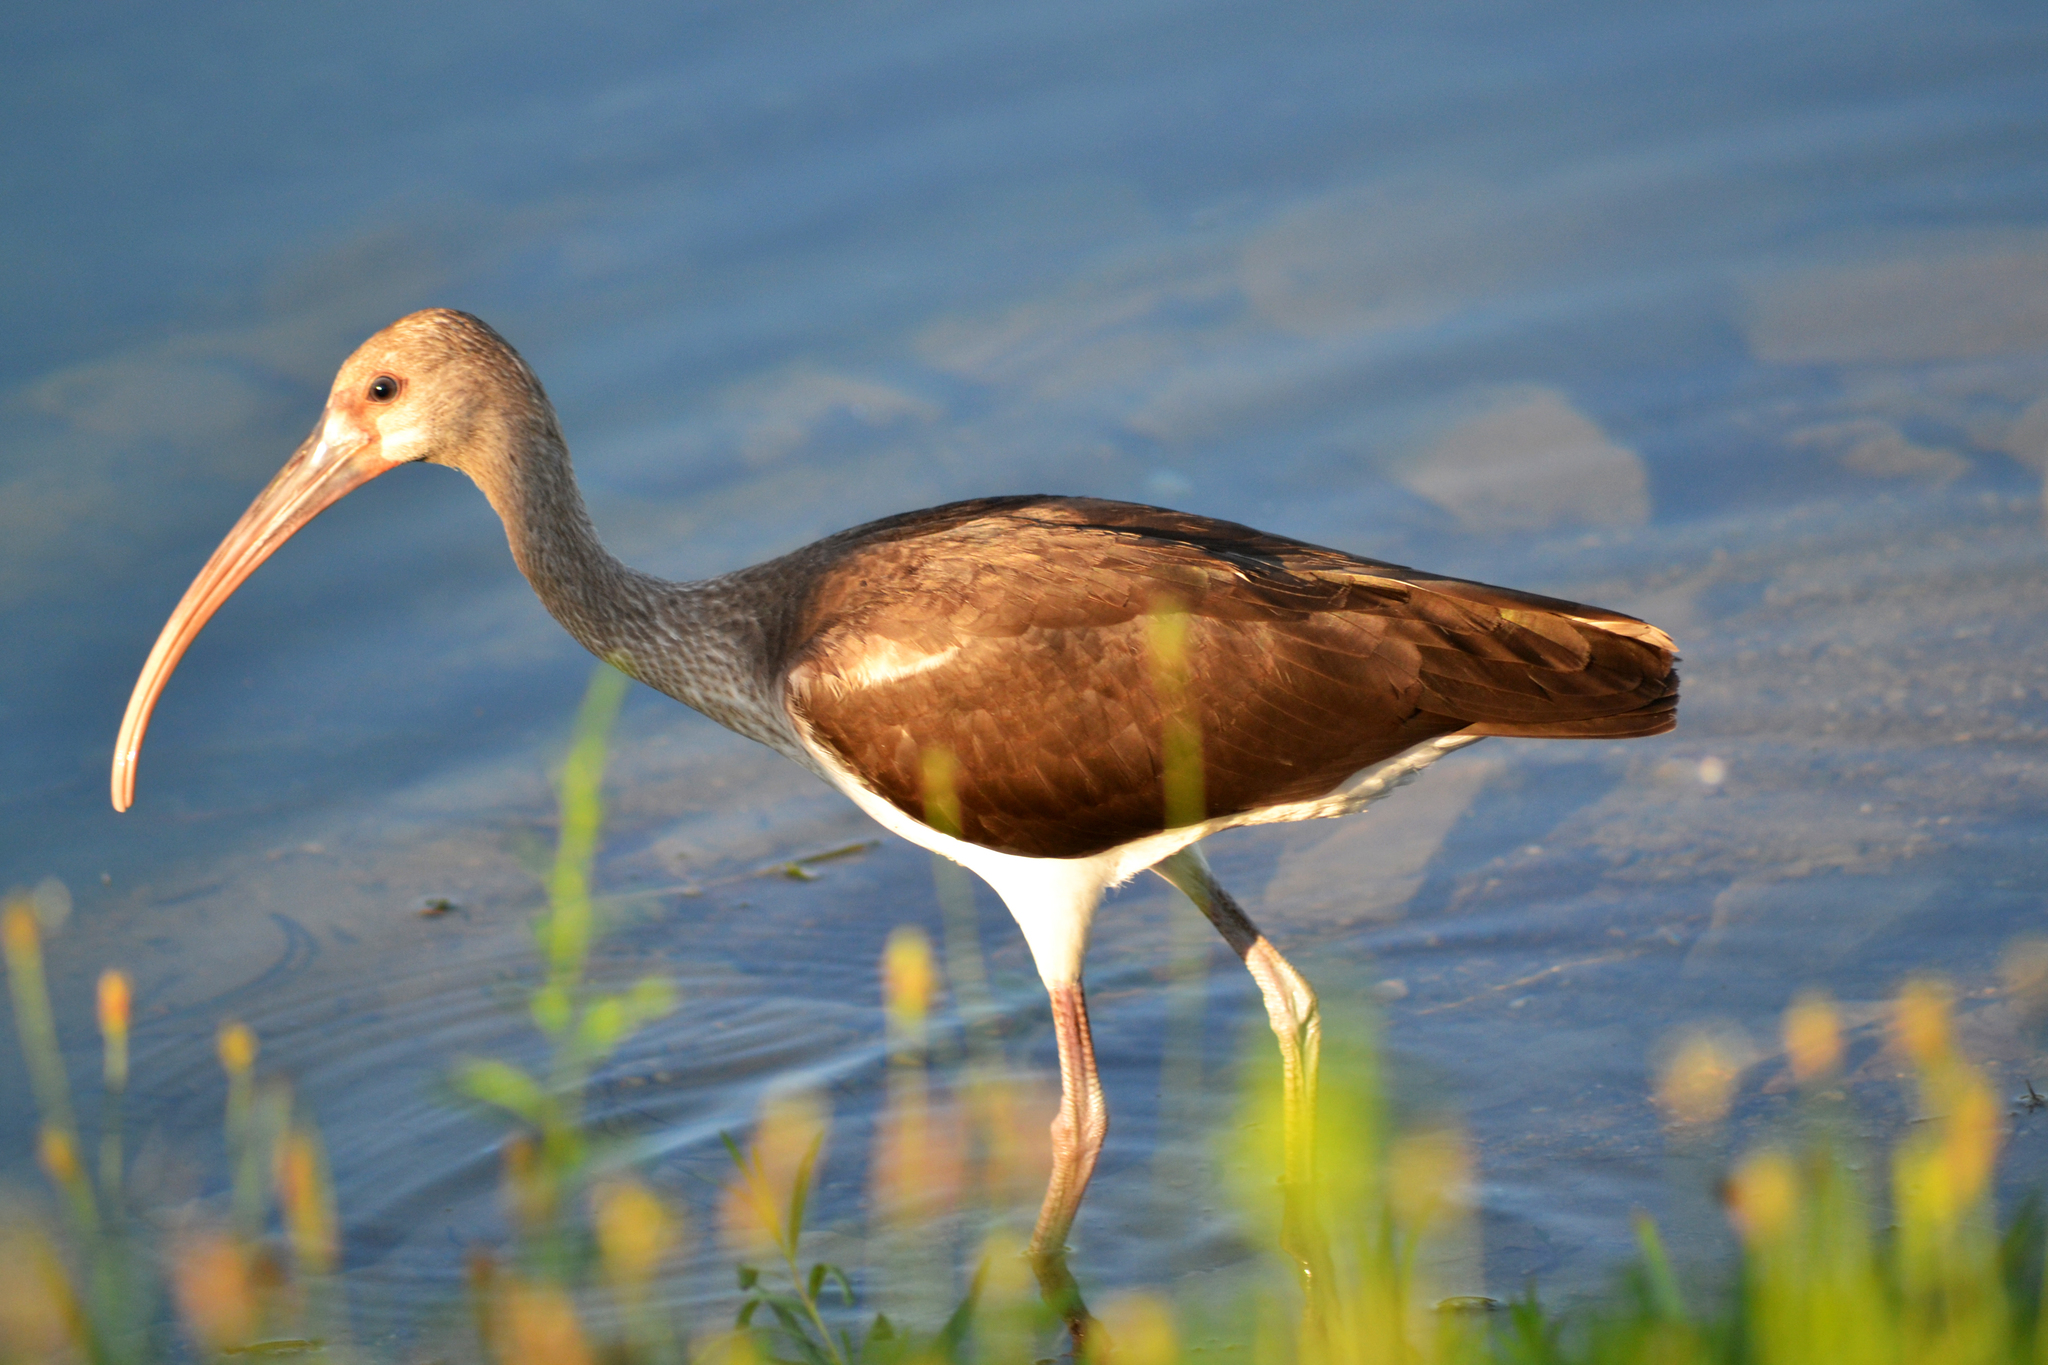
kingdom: Animalia
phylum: Chordata
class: Aves
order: Pelecaniformes
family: Threskiornithidae
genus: Eudocimus
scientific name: Eudocimus albus
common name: White ibis
